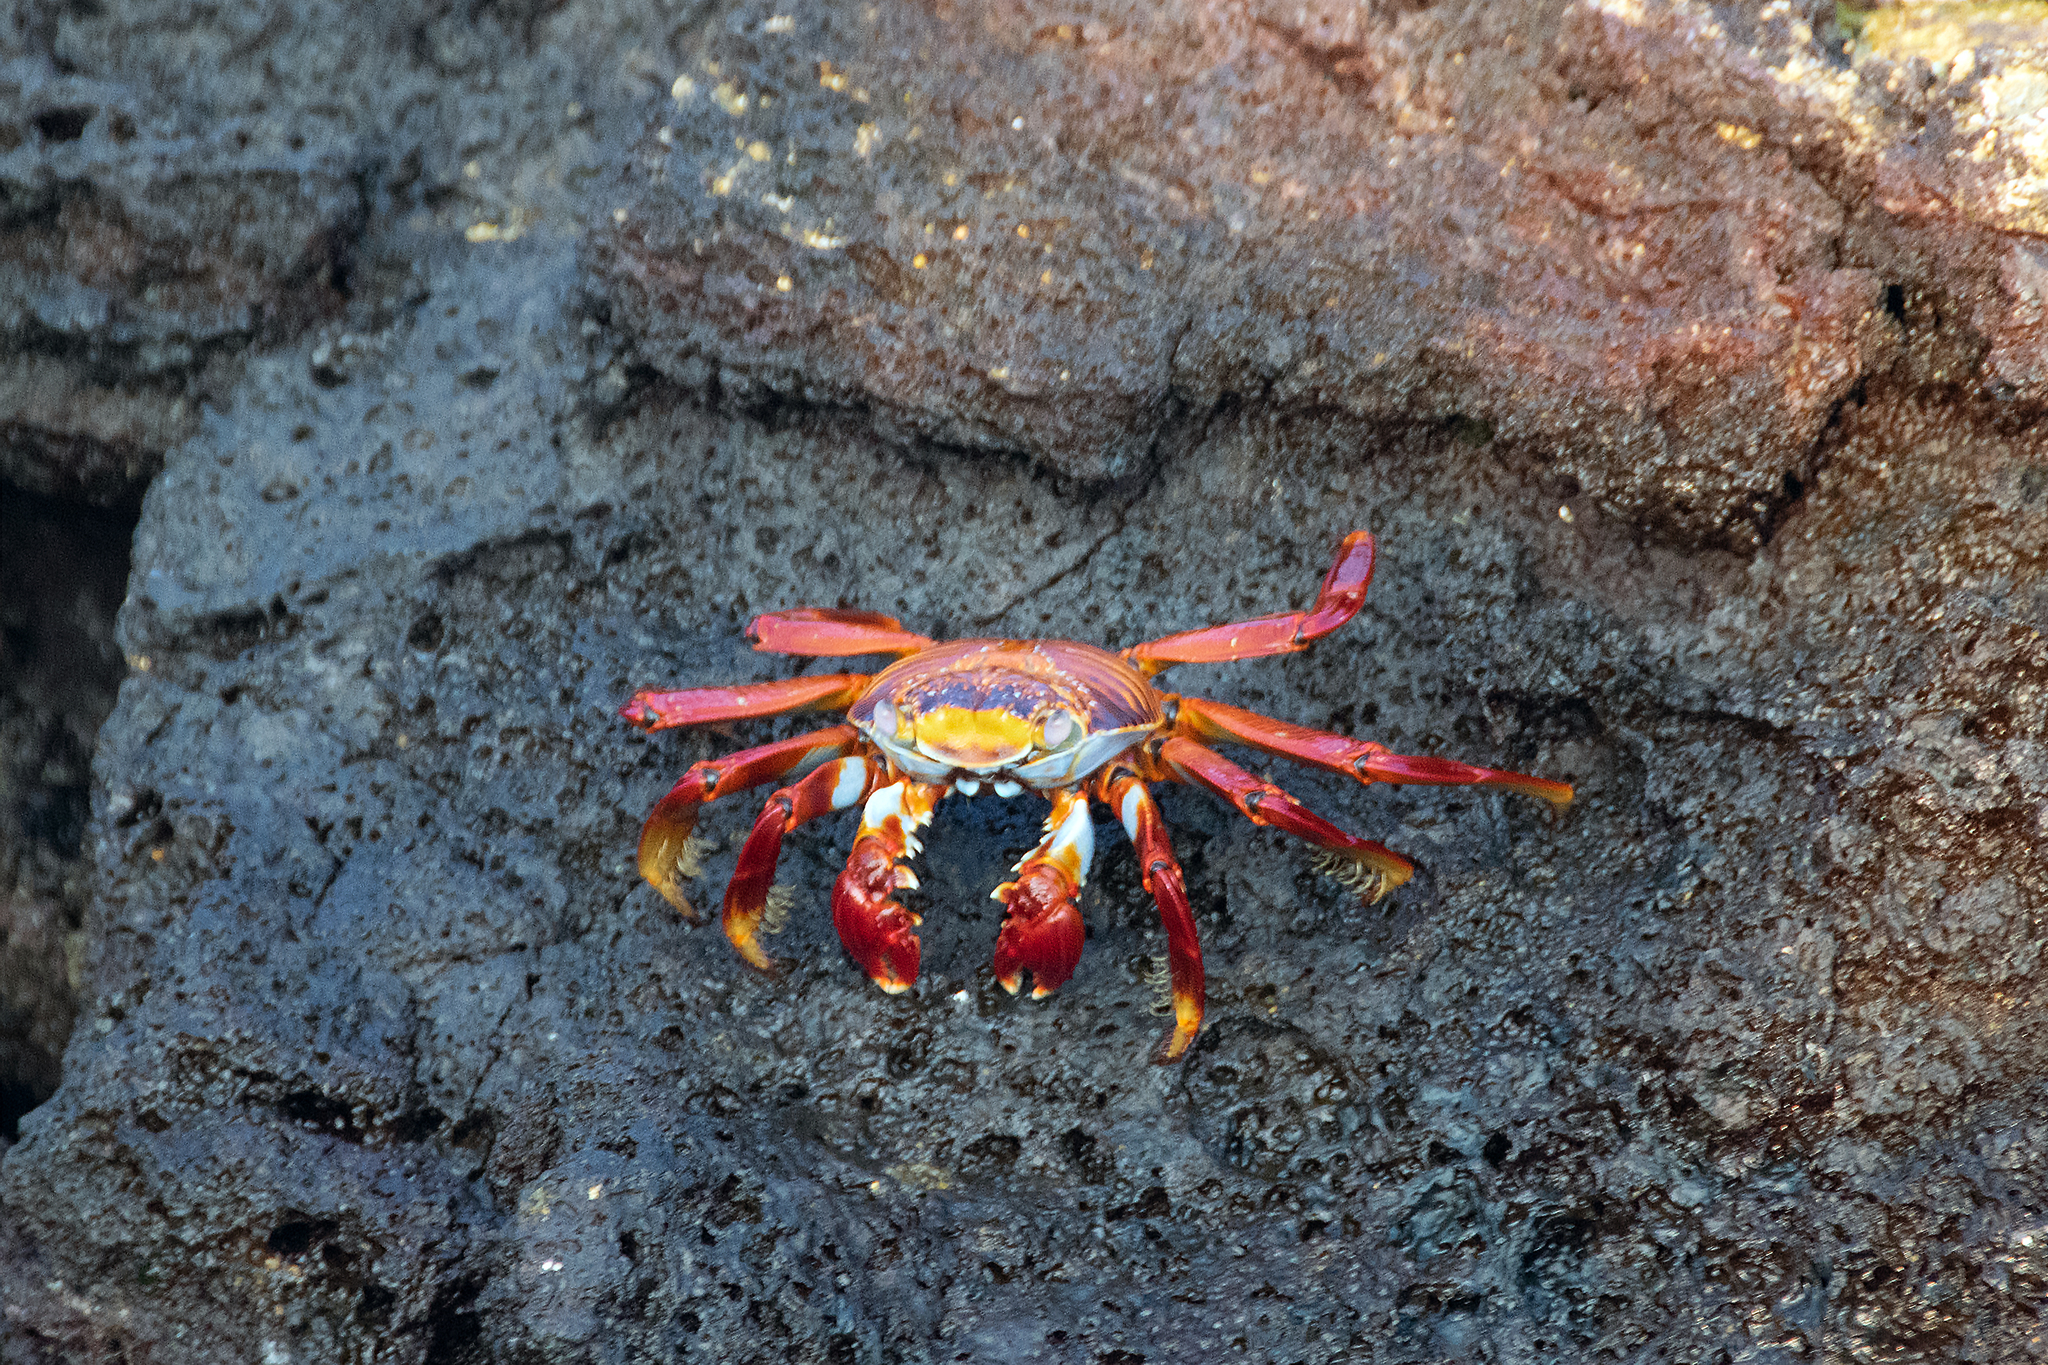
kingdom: Animalia
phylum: Arthropoda
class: Malacostraca
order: Decapoda
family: Grapsidae
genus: Grapsus
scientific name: Grapsus grapsus
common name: Sally lightfoot
